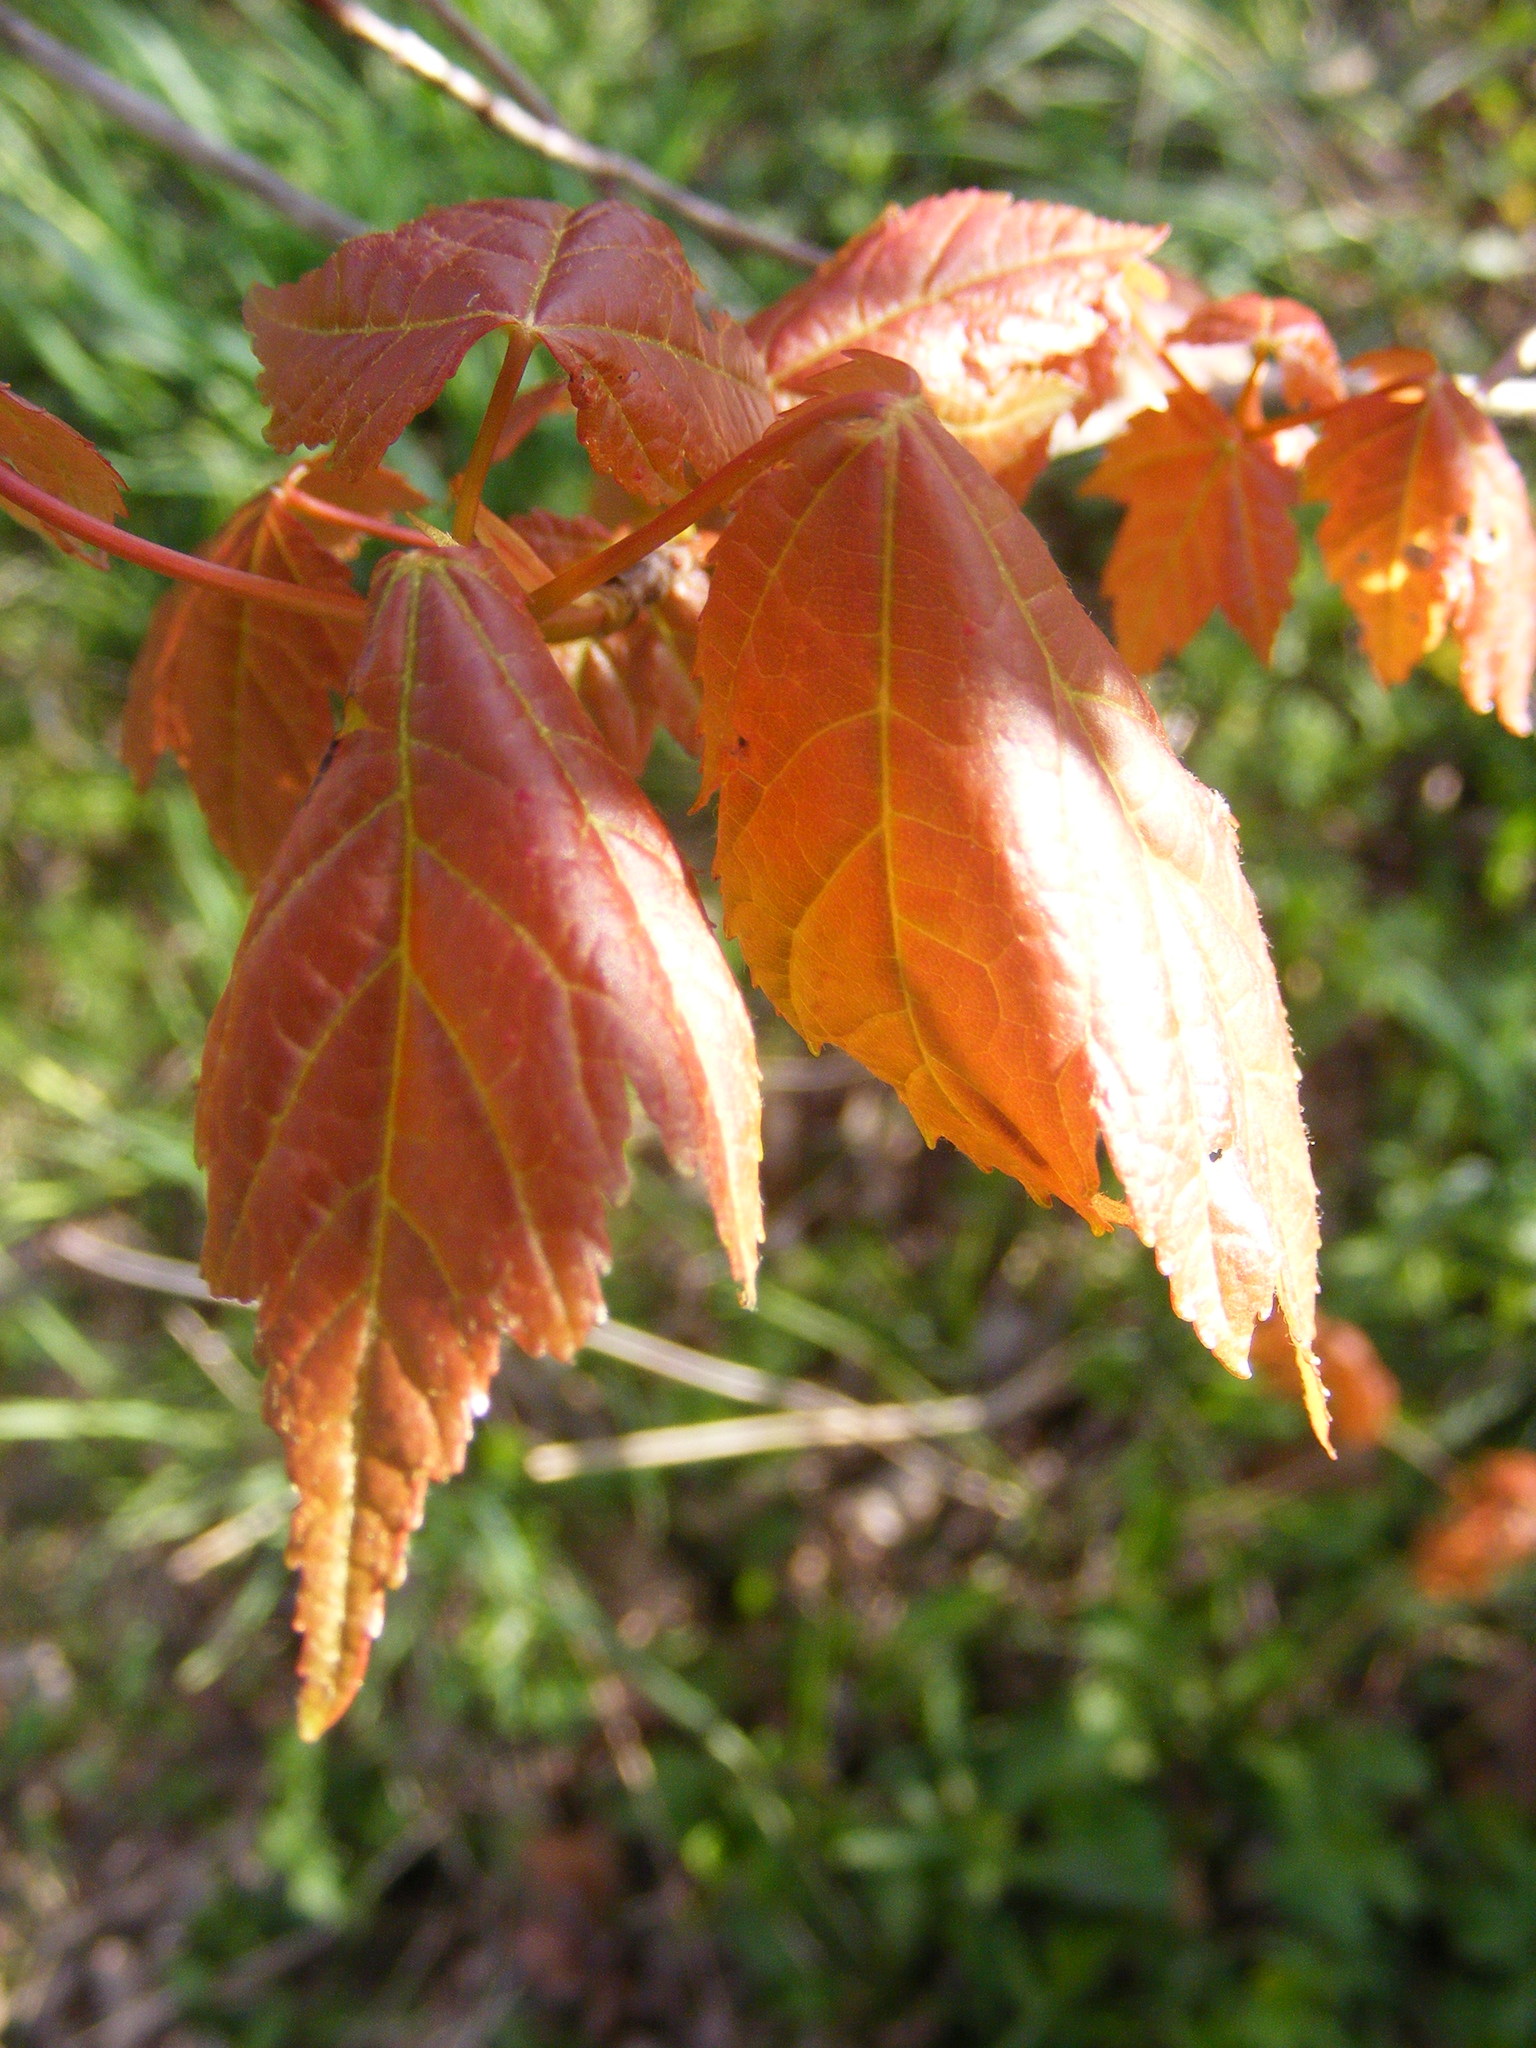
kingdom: Plantae
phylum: Tracheophyta
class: Magnoliopsida
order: Sapindales
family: Sapindaceae
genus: Acer
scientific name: Acer rubrum
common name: Red maple
